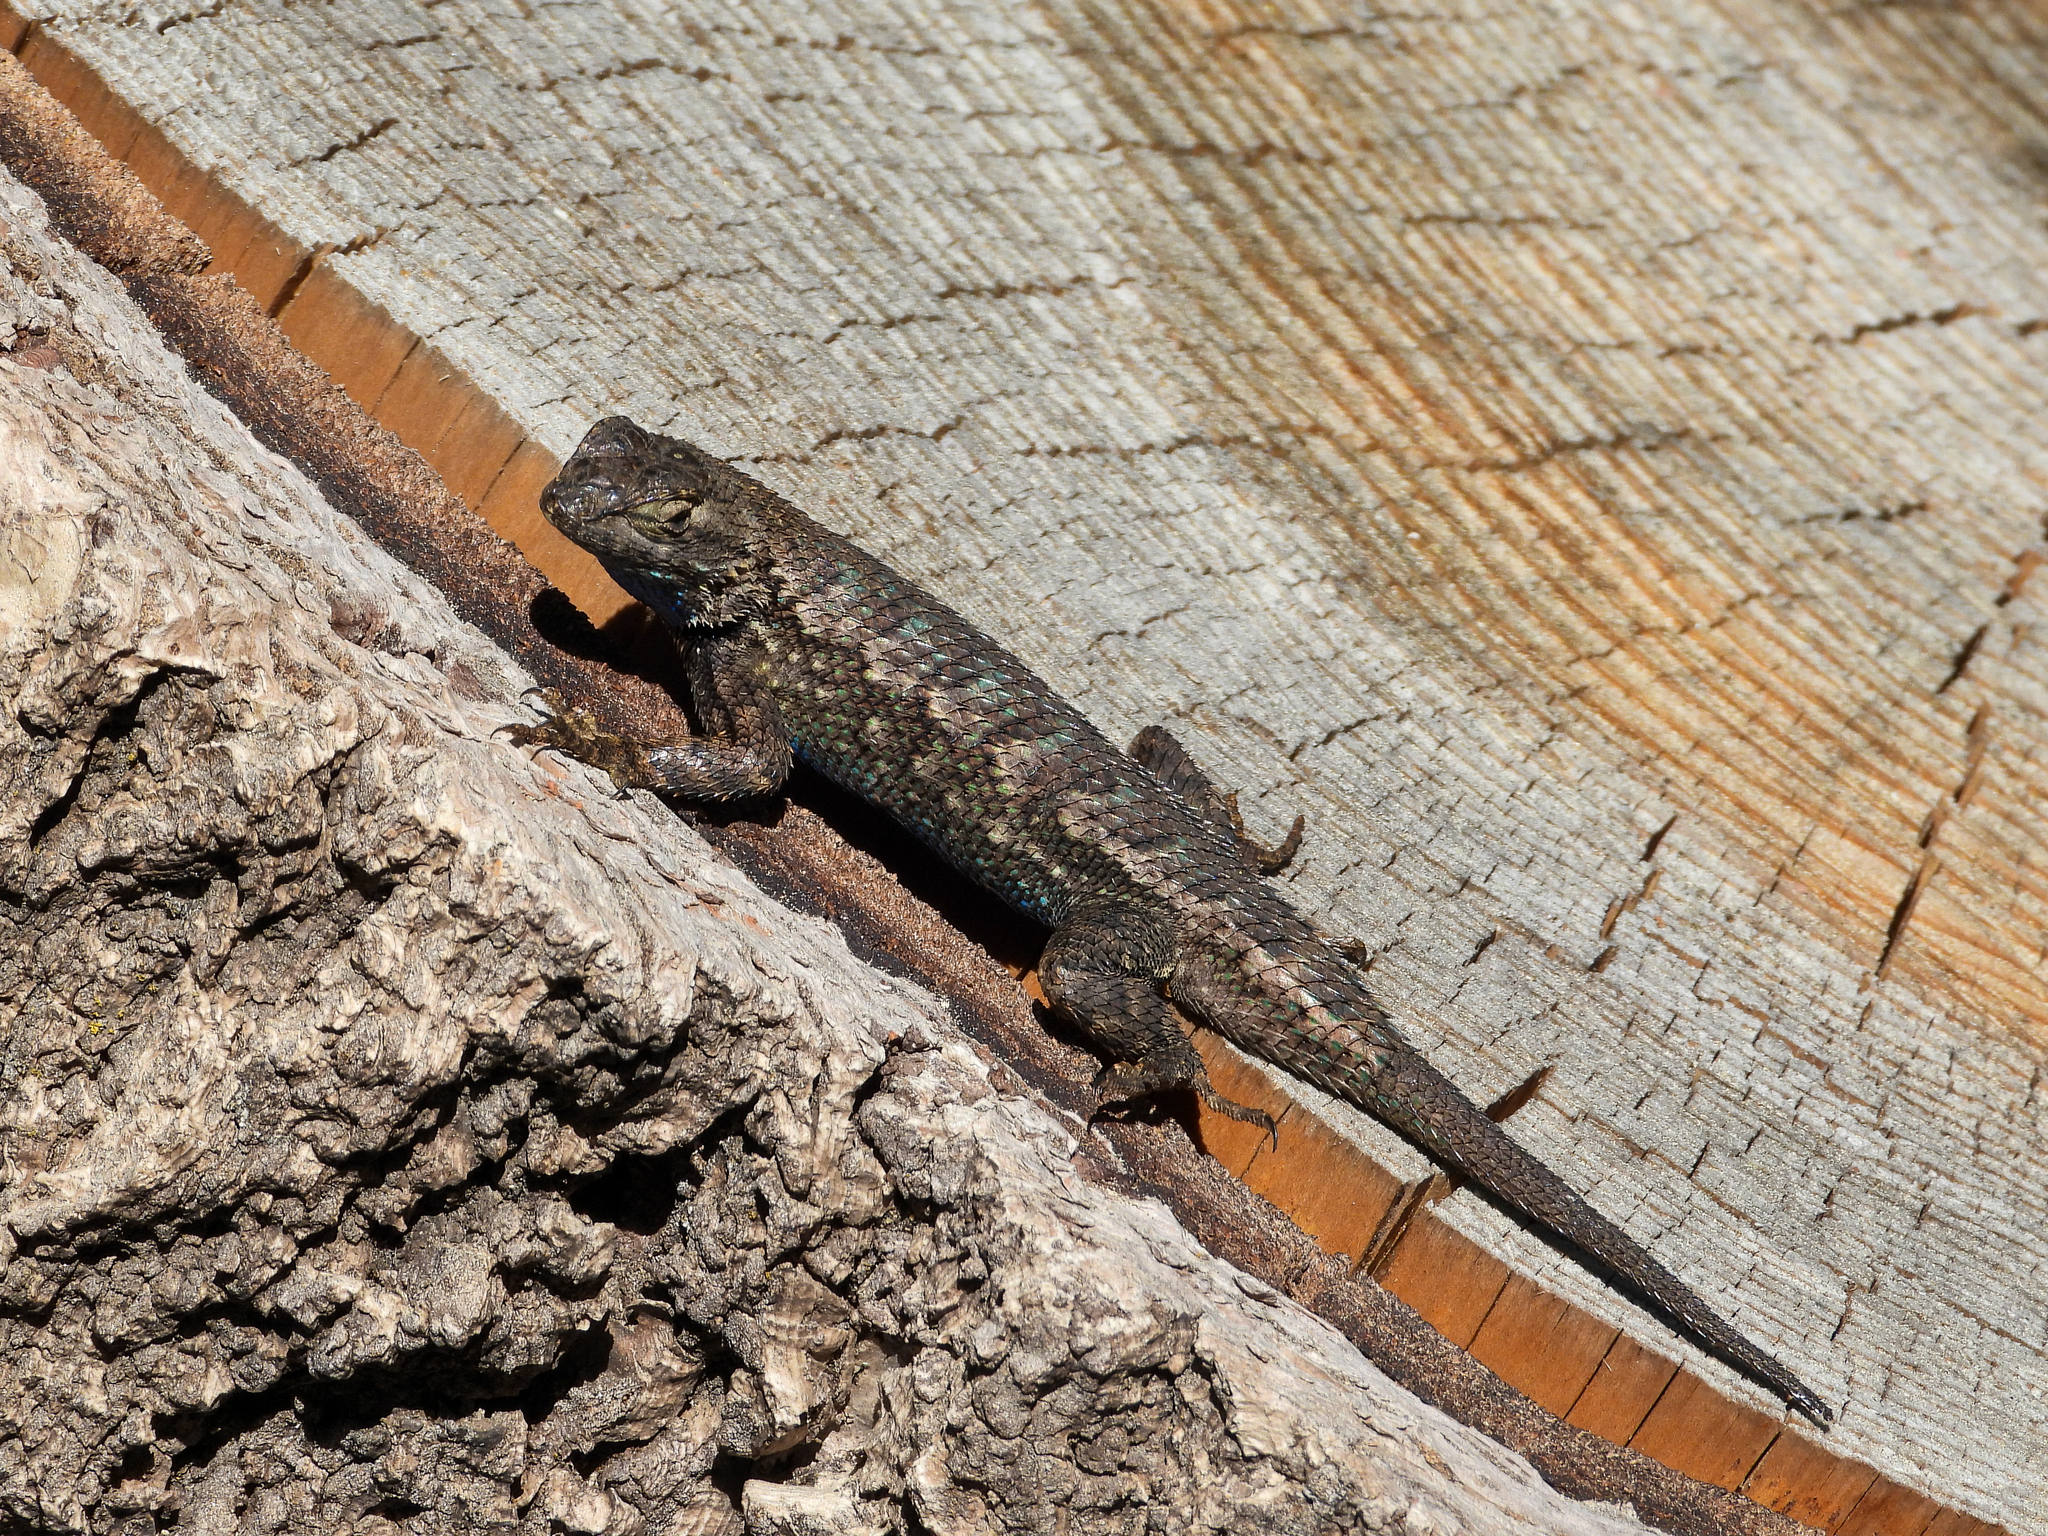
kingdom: Animalia
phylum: Chordata
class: Squamata
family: Phrynosomatidae
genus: Sceloporus
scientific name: Sceloporus occidentalis
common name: Western fence lizard
